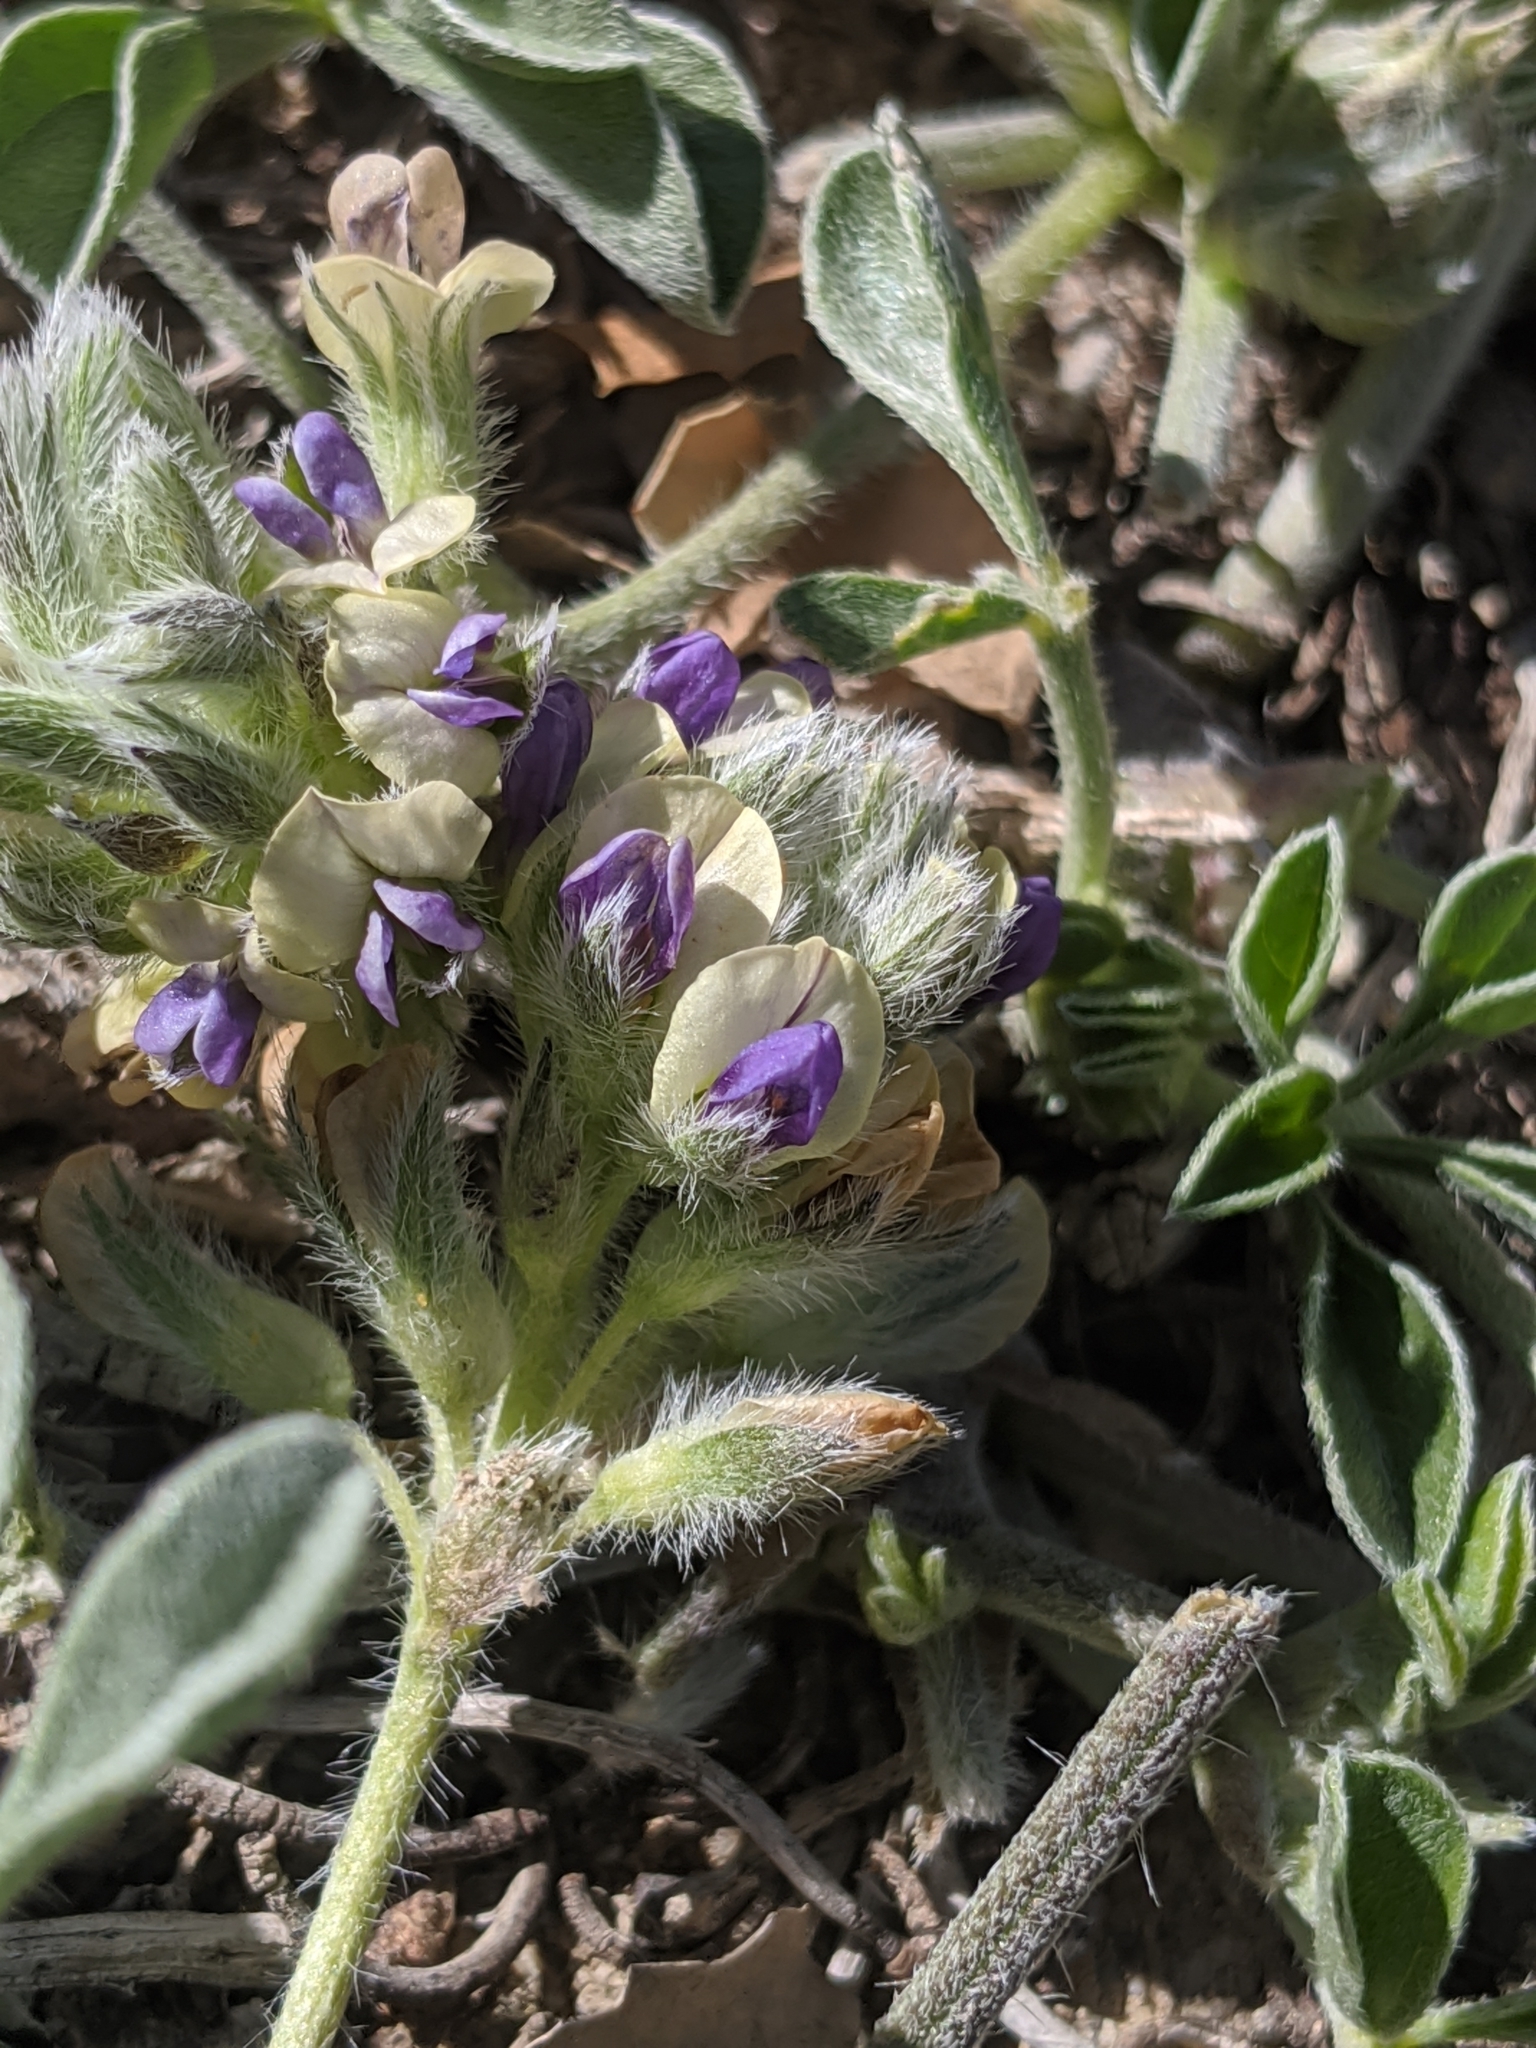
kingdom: Plantae
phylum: Tracheophyta
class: Magnoliopsida
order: Fabales
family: Fabaceae
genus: Pediomelum
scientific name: Pediomelum californicum
